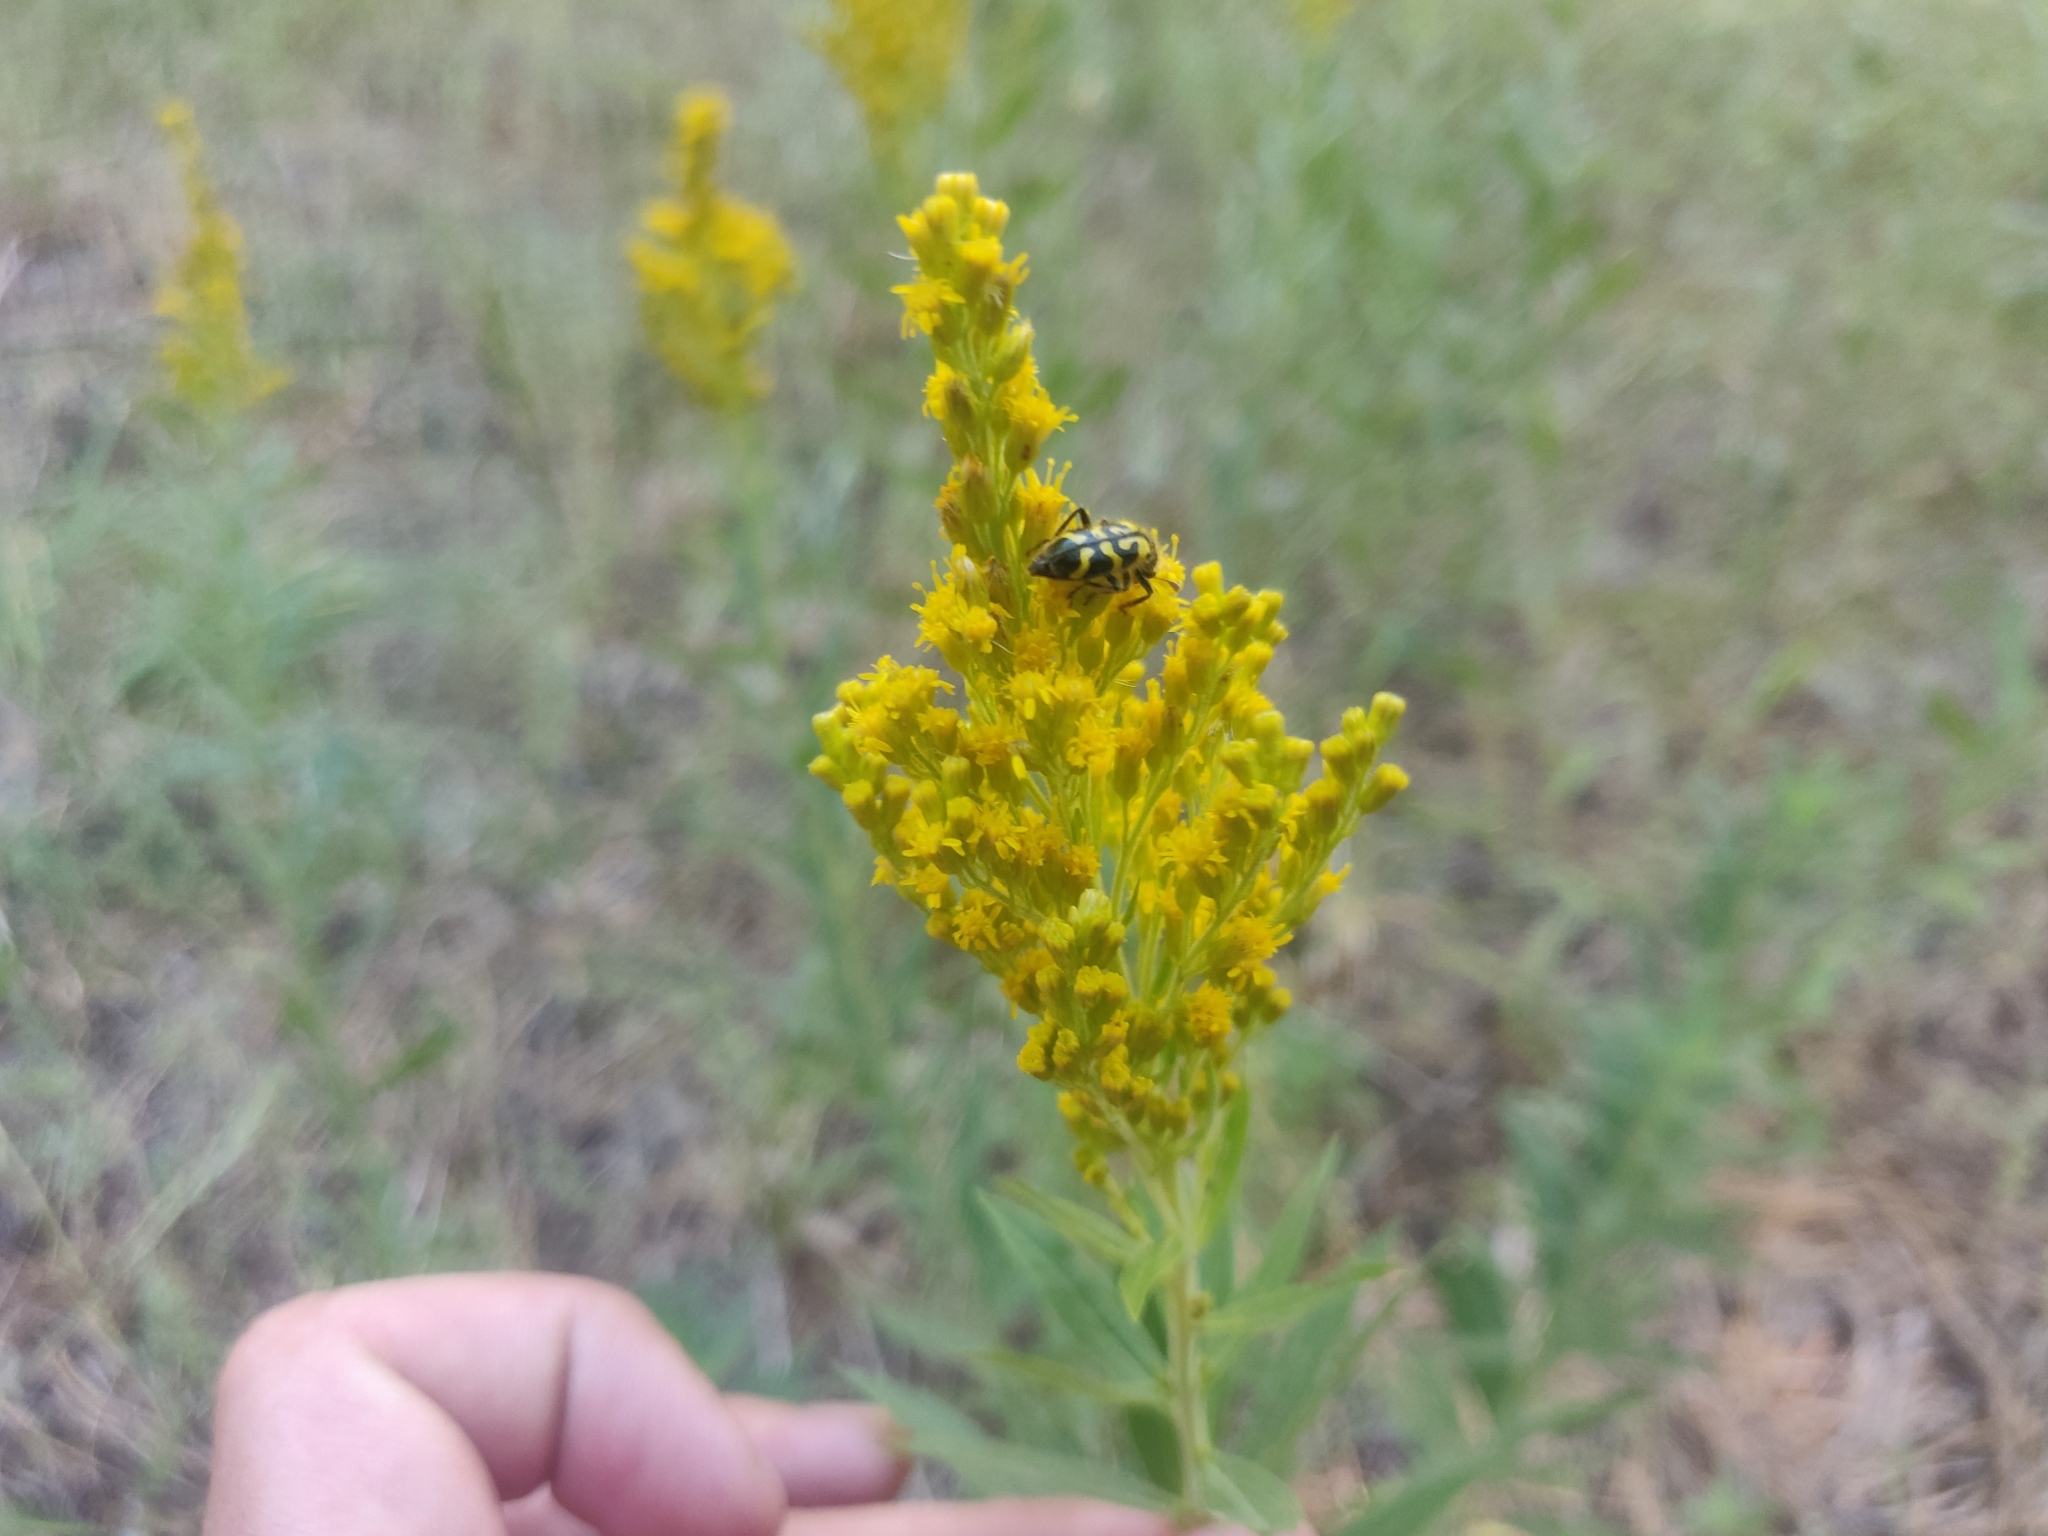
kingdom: Animalia
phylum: Arthropoda
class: Insecta
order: Coleoptera
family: Cleridae
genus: Trichodes
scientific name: Trichodes ornatus
